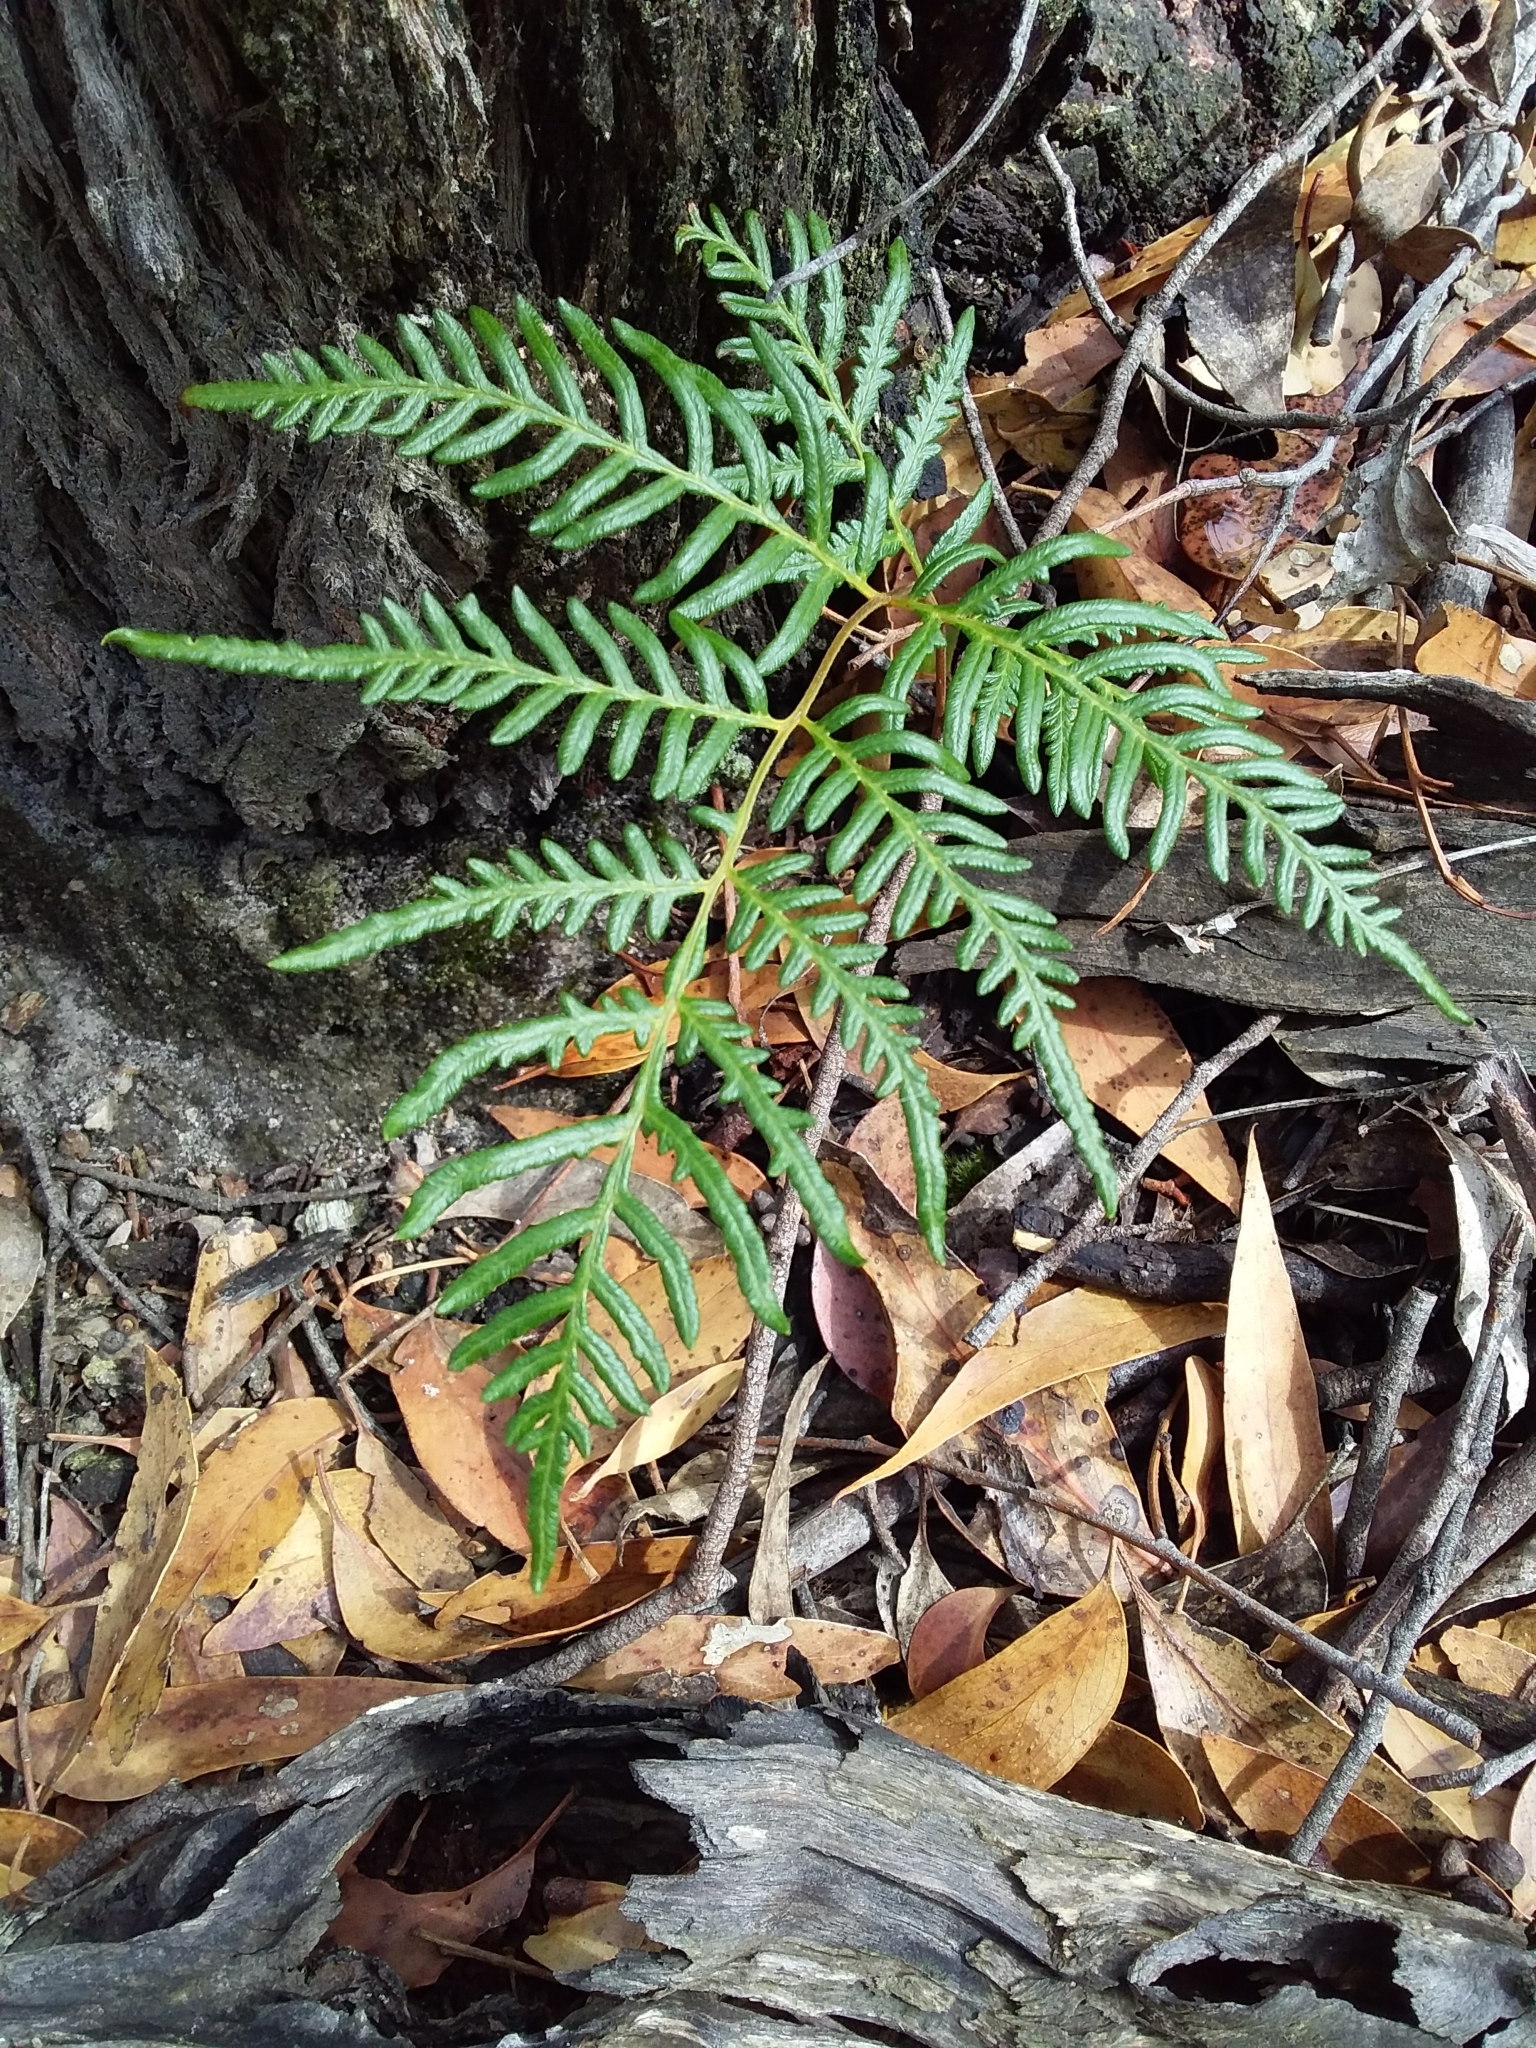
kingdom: Plantae
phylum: Tracheophyta
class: Polypodiopsida
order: Polypodiales
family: Dennstaedtiaceae
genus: Pteridium
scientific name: Pteridium esculentum
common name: Bracken fern
